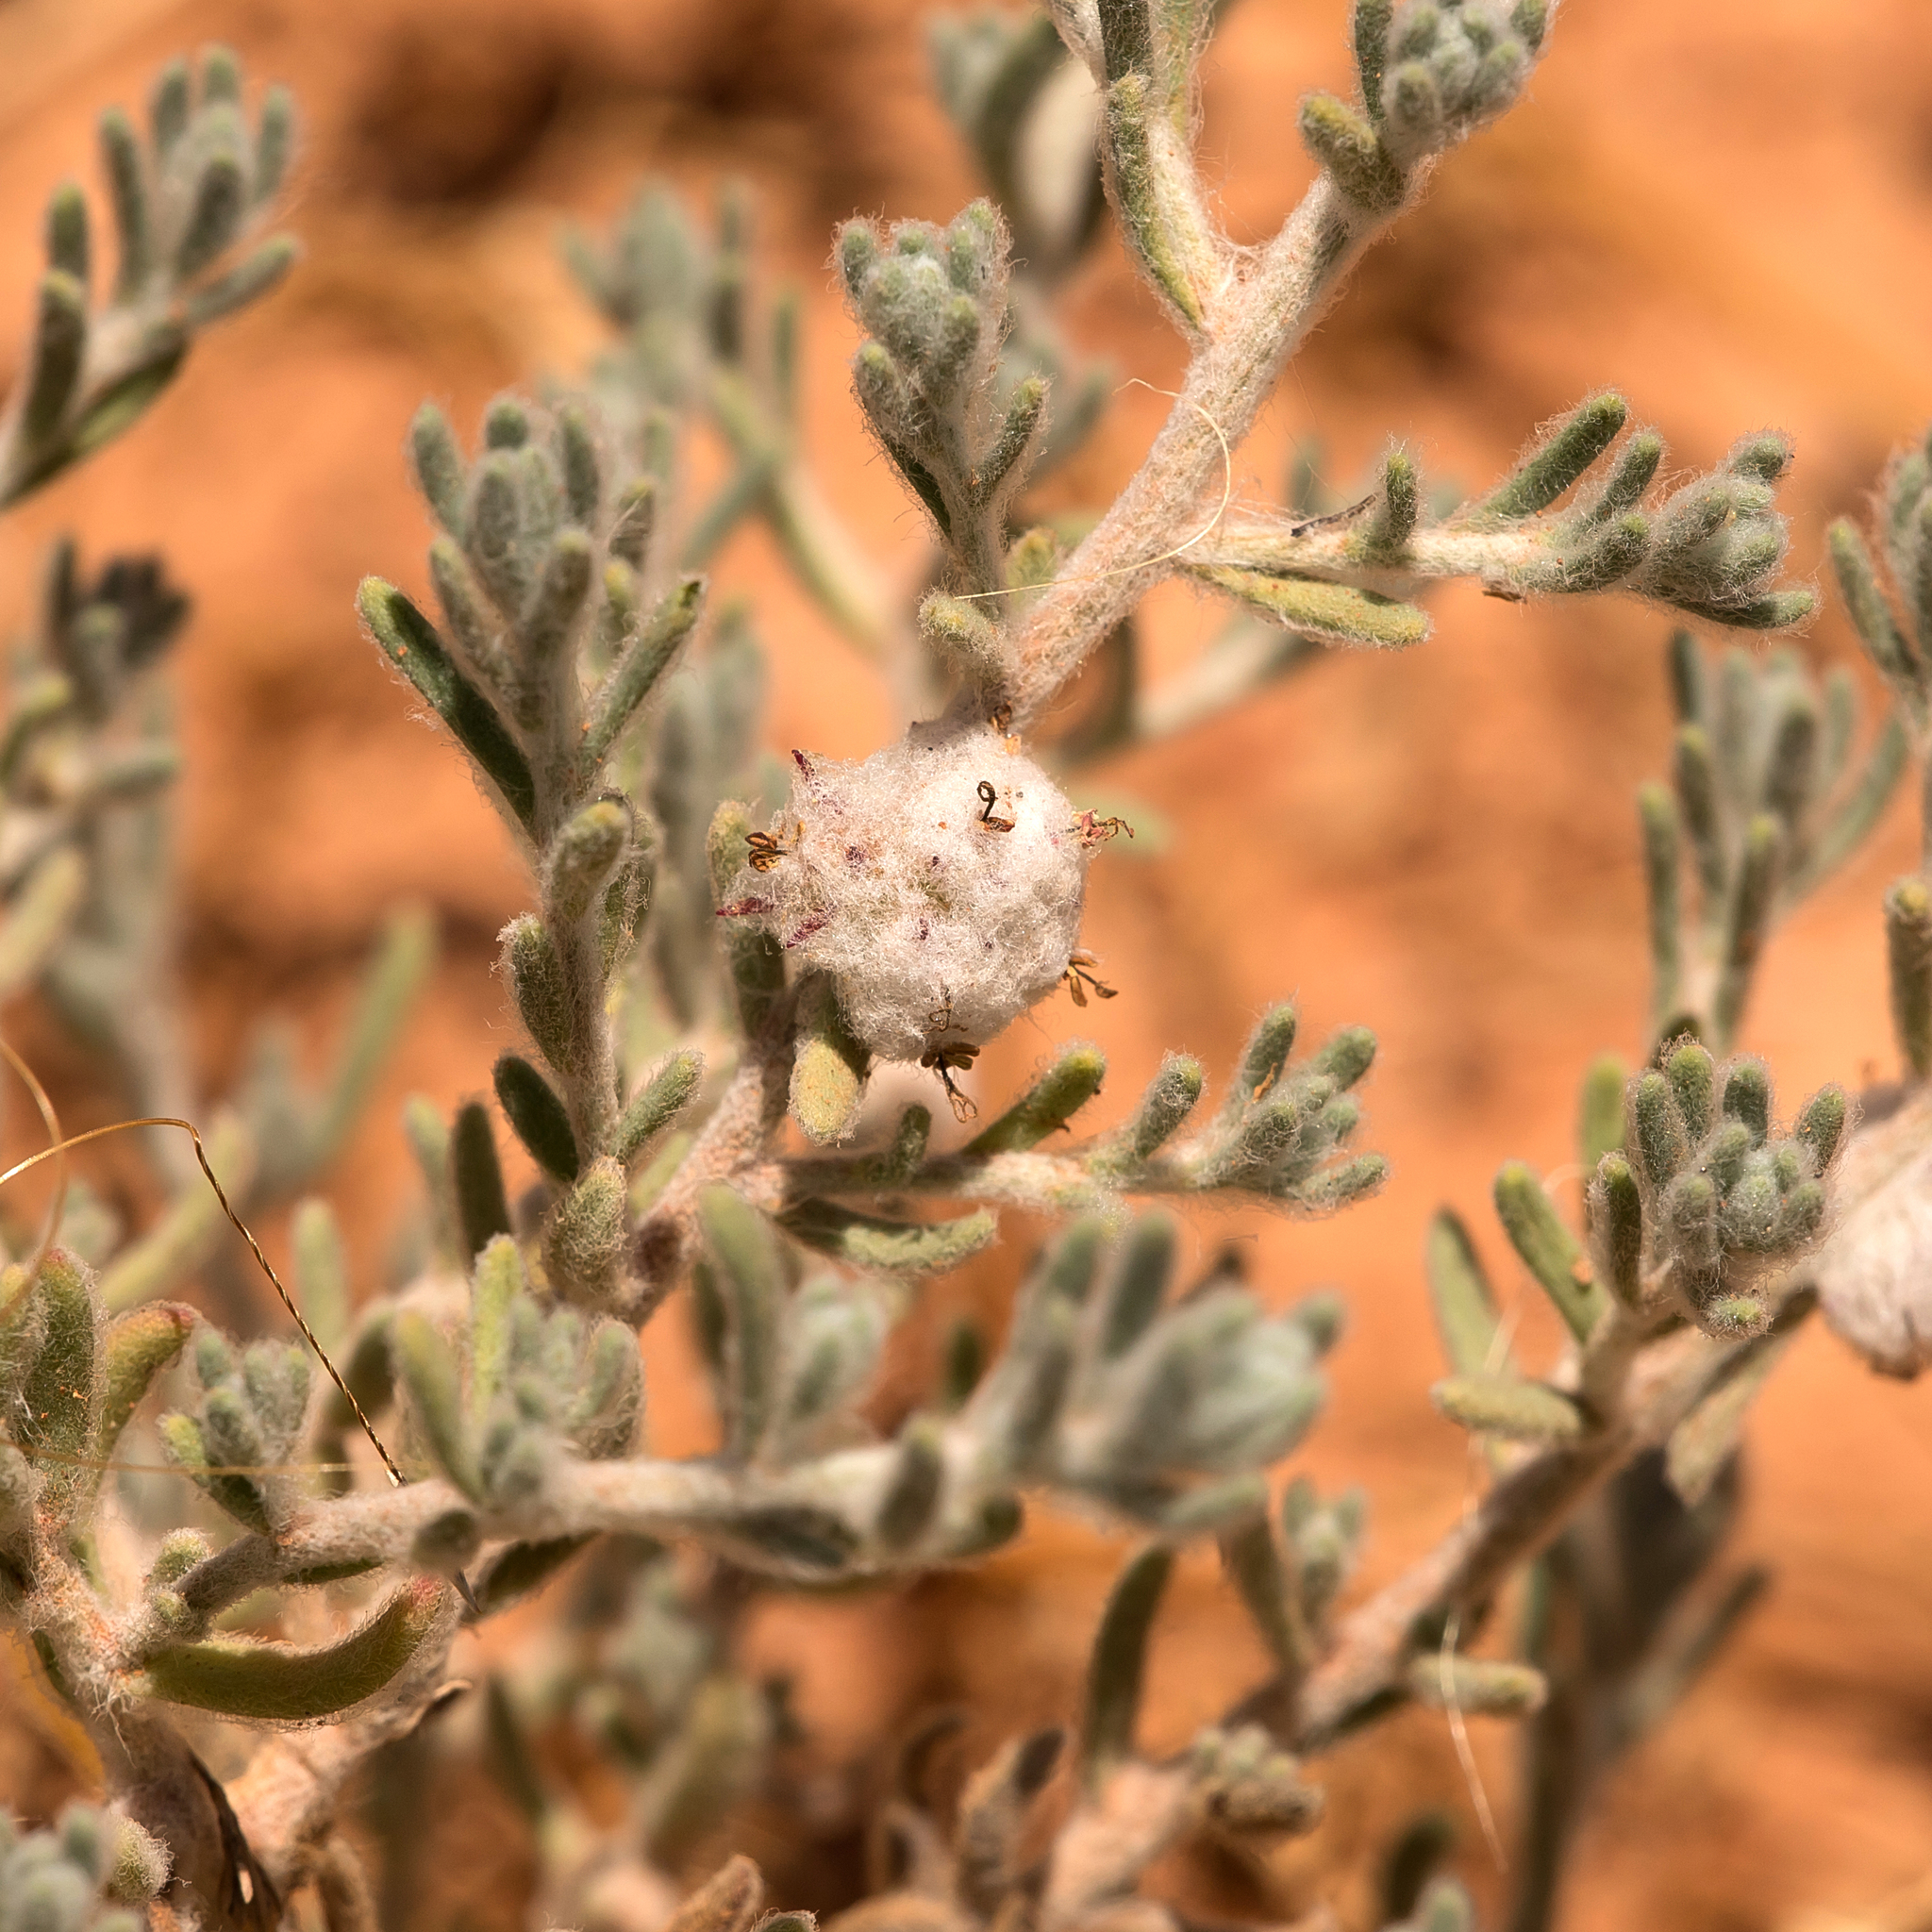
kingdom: Plantae
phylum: Tracheophyta
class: Magnoliopsida
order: Caryophyllales
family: Amaranthaceae
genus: Dissocarpus
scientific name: Dissocarpus paradoxus
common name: Bur-saltbush
